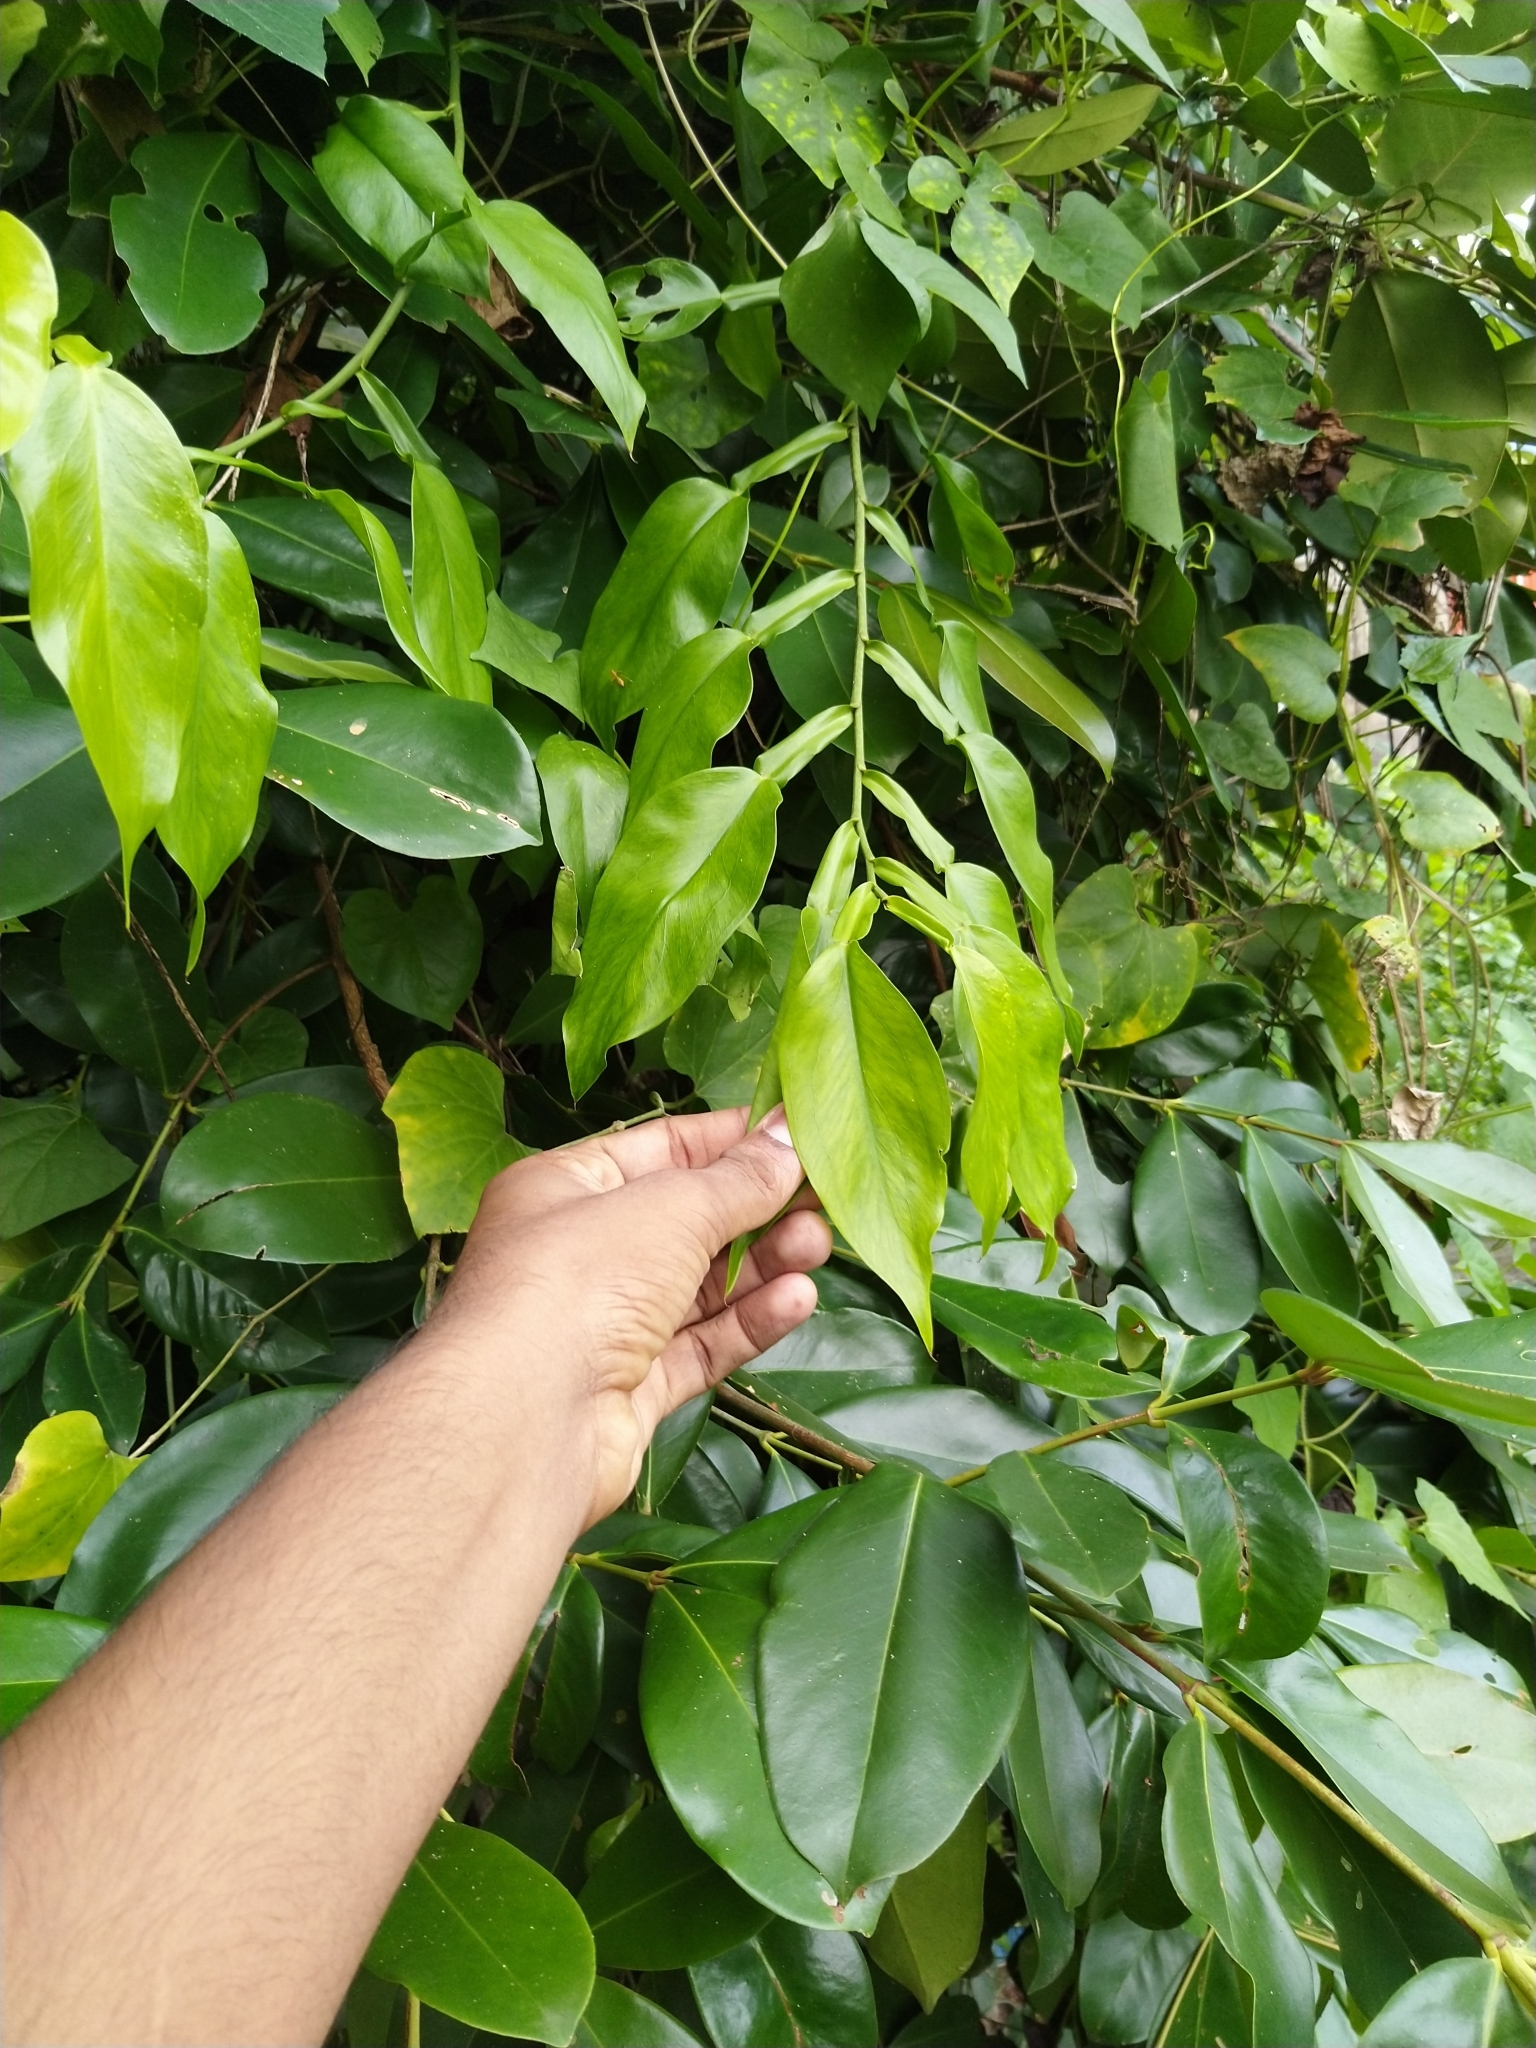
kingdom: Plantae
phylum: Tracheophyta
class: Liliopsida
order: Alismatales
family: Araceae
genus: Pothos
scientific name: Pothos chinensis
